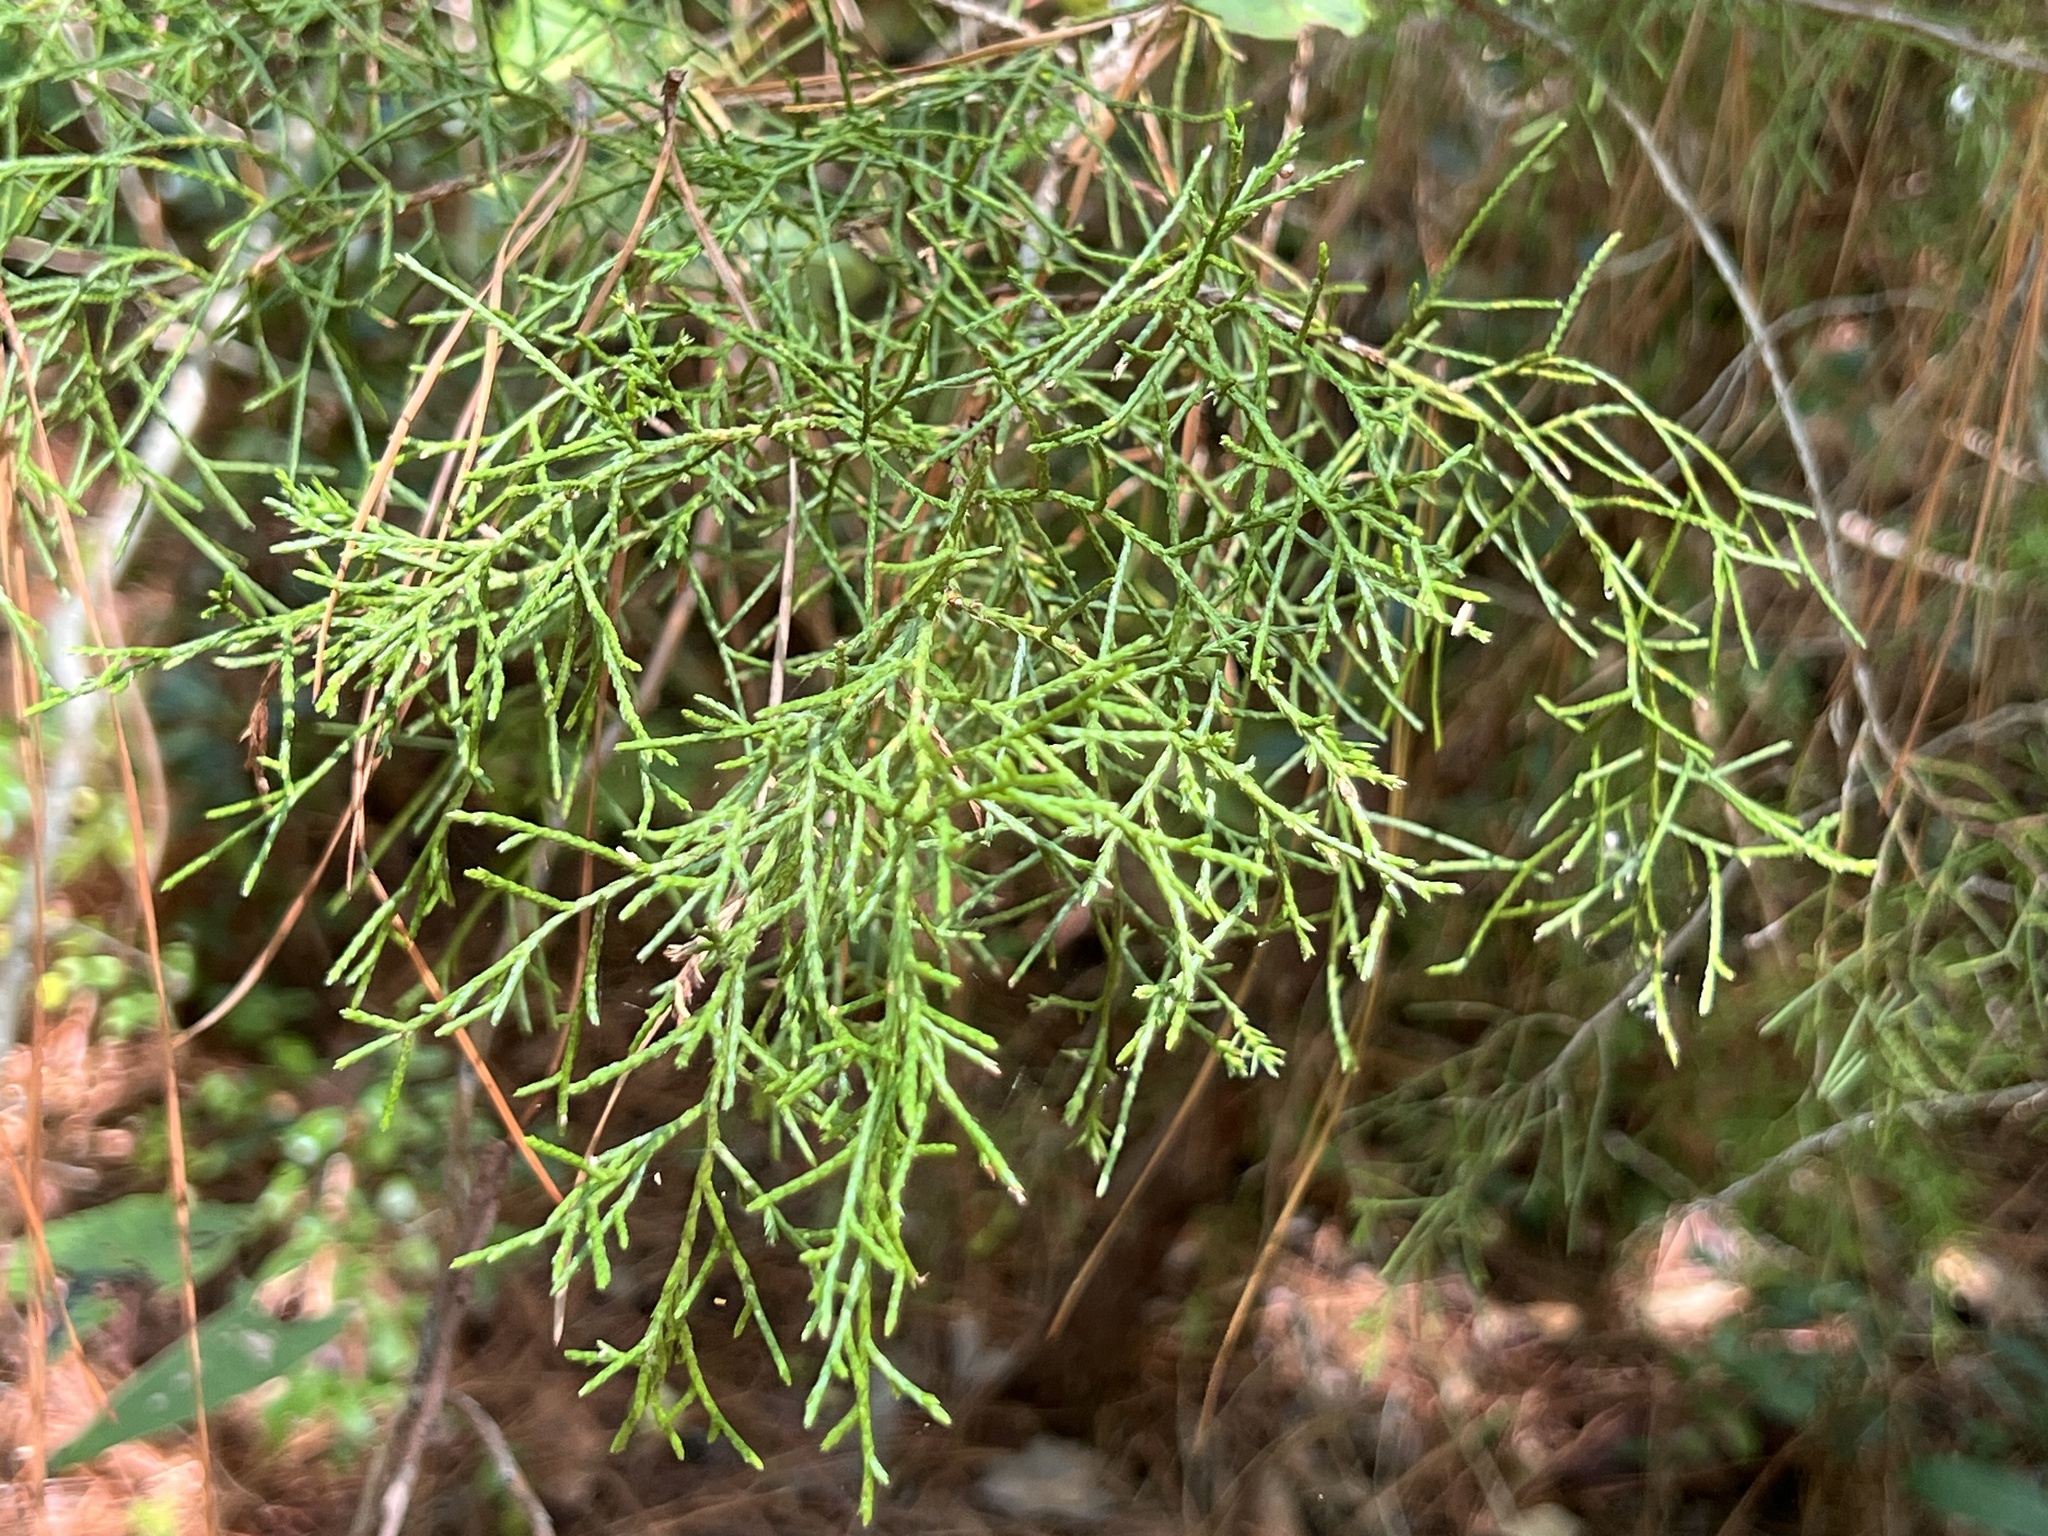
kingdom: Plantae
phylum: Tracheophyta
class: Pinopsida
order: Pinales
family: Cupressaceae
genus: Juniperus
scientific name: Juniperus virginiana
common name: Red juniper
